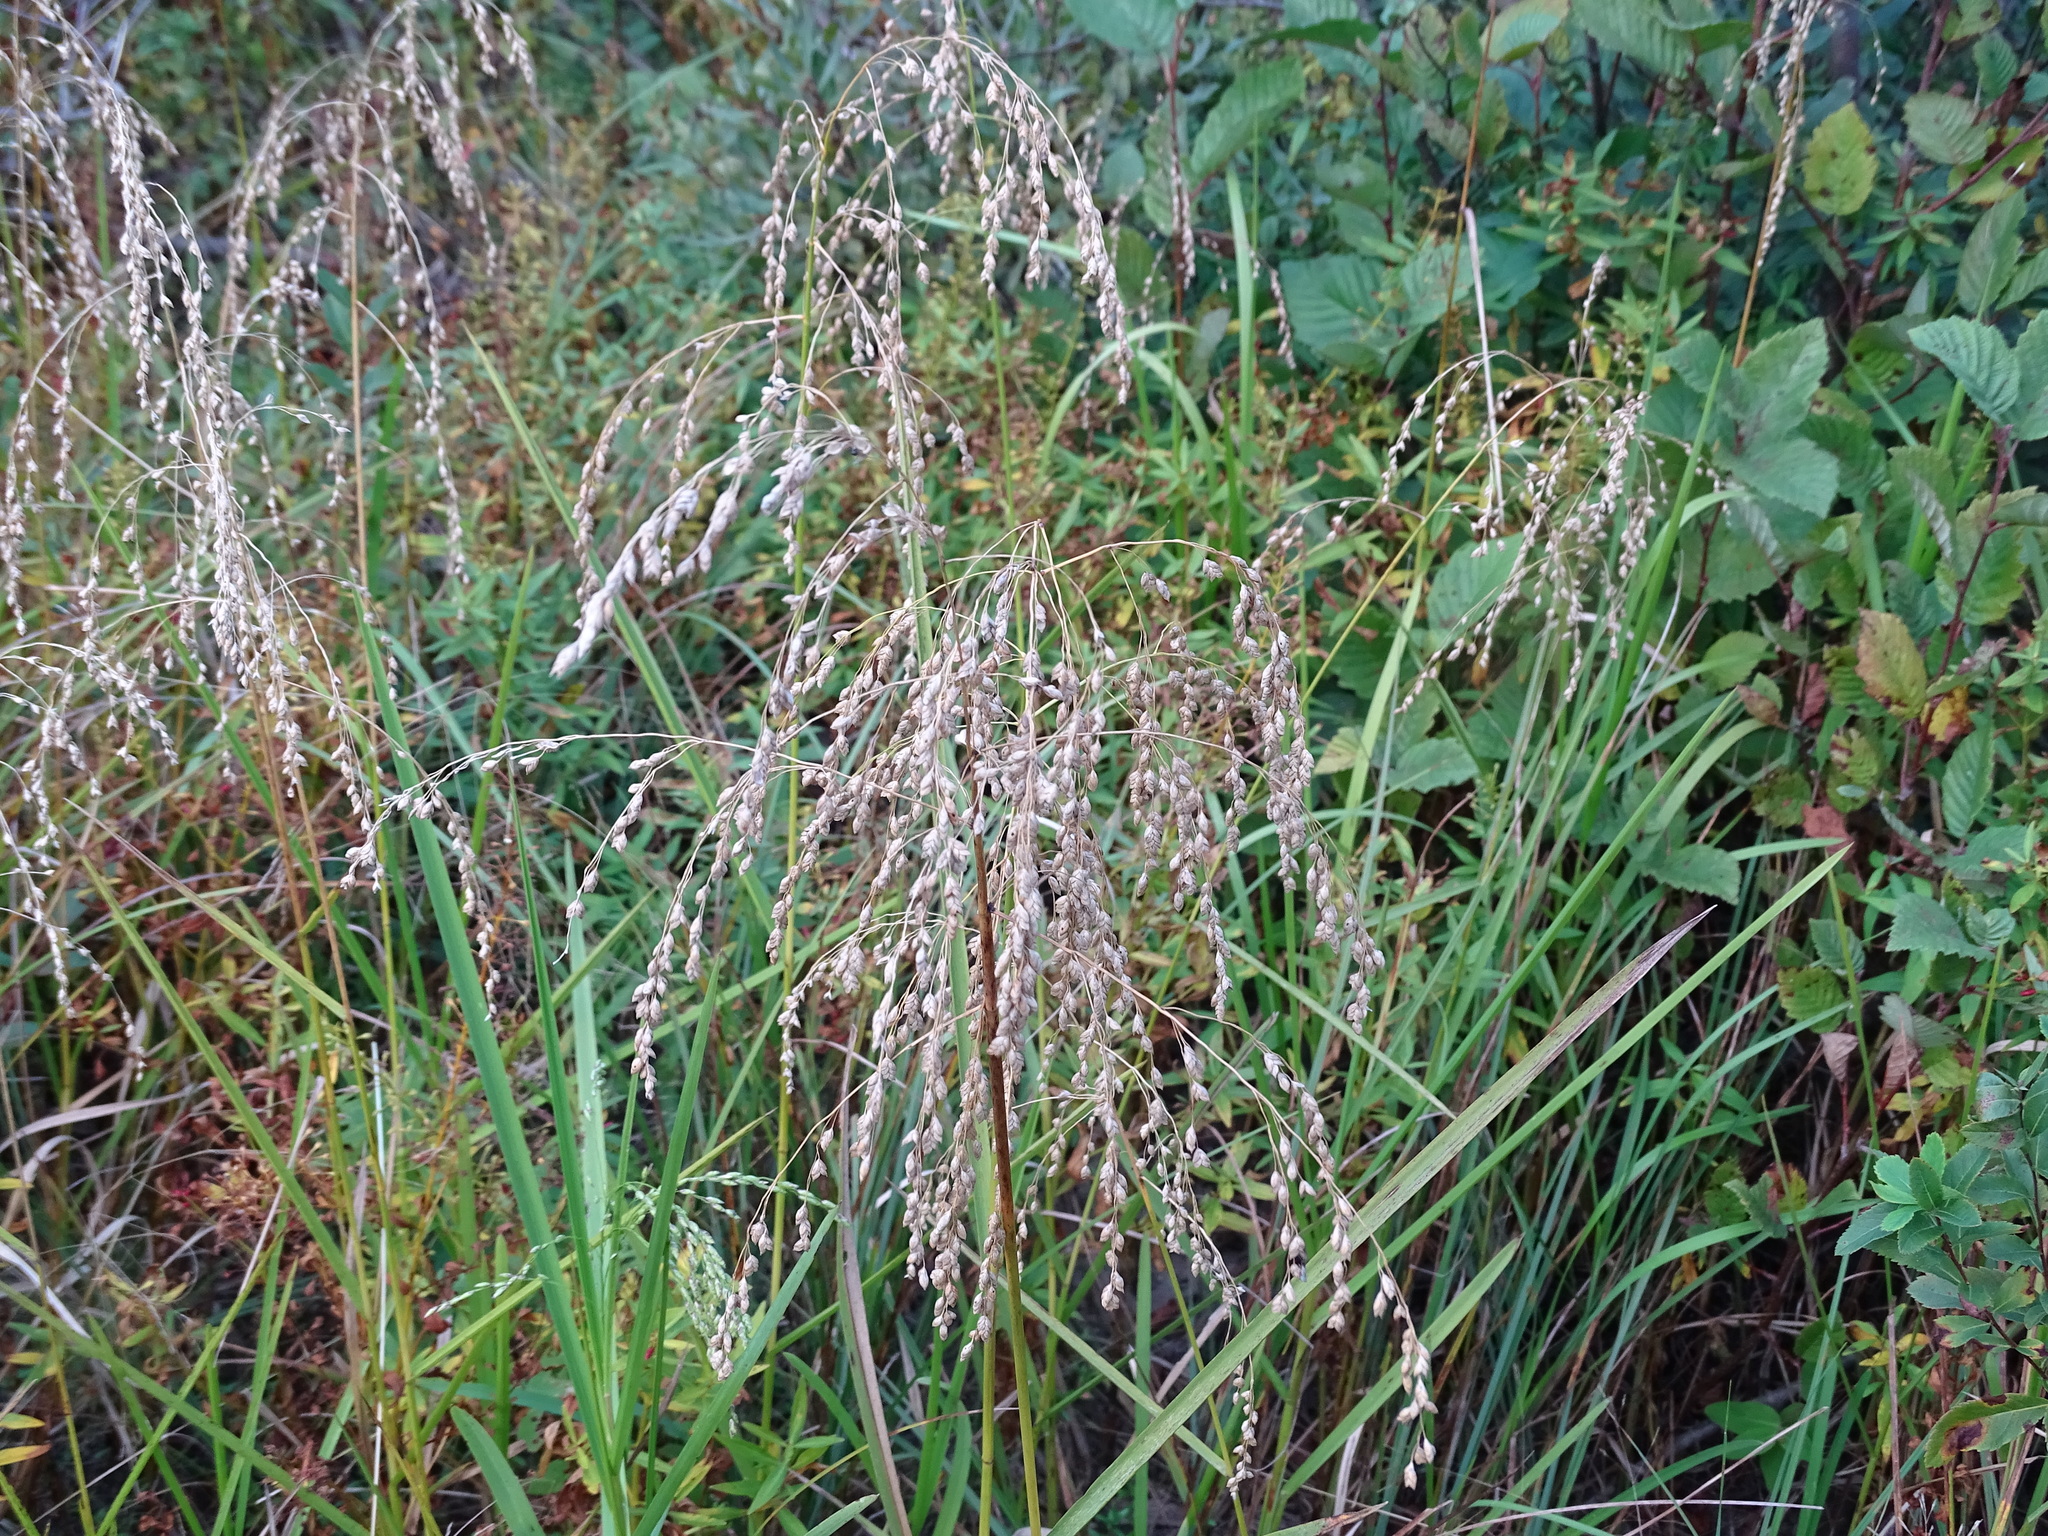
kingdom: Plantae
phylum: Tracheophyta
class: Liliopsida
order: Poales
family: Poaceae
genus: Glyceria
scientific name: Glyceria canadensis
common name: Canada mannagrass
